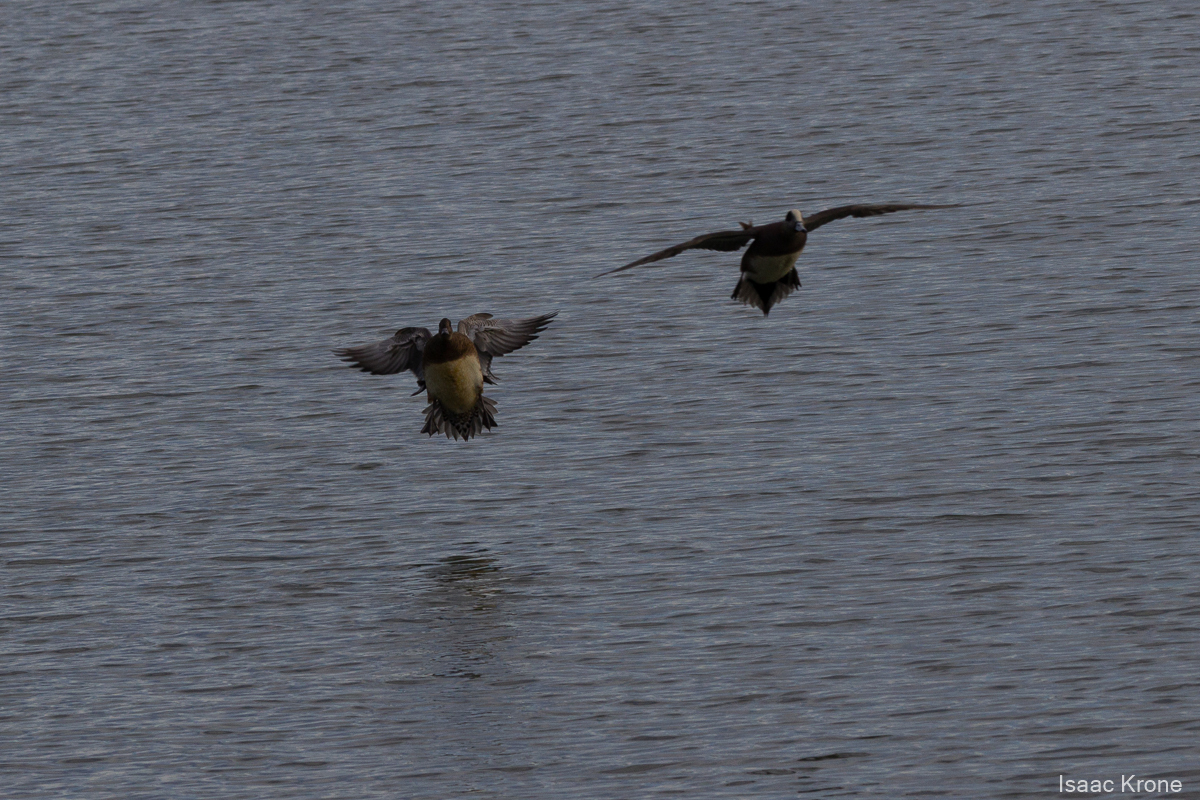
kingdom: Animalia
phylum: Chordata
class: Aves
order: Anseriformes
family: Anatidae
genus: Mareca
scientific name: Mareca americana
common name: American wigeon
